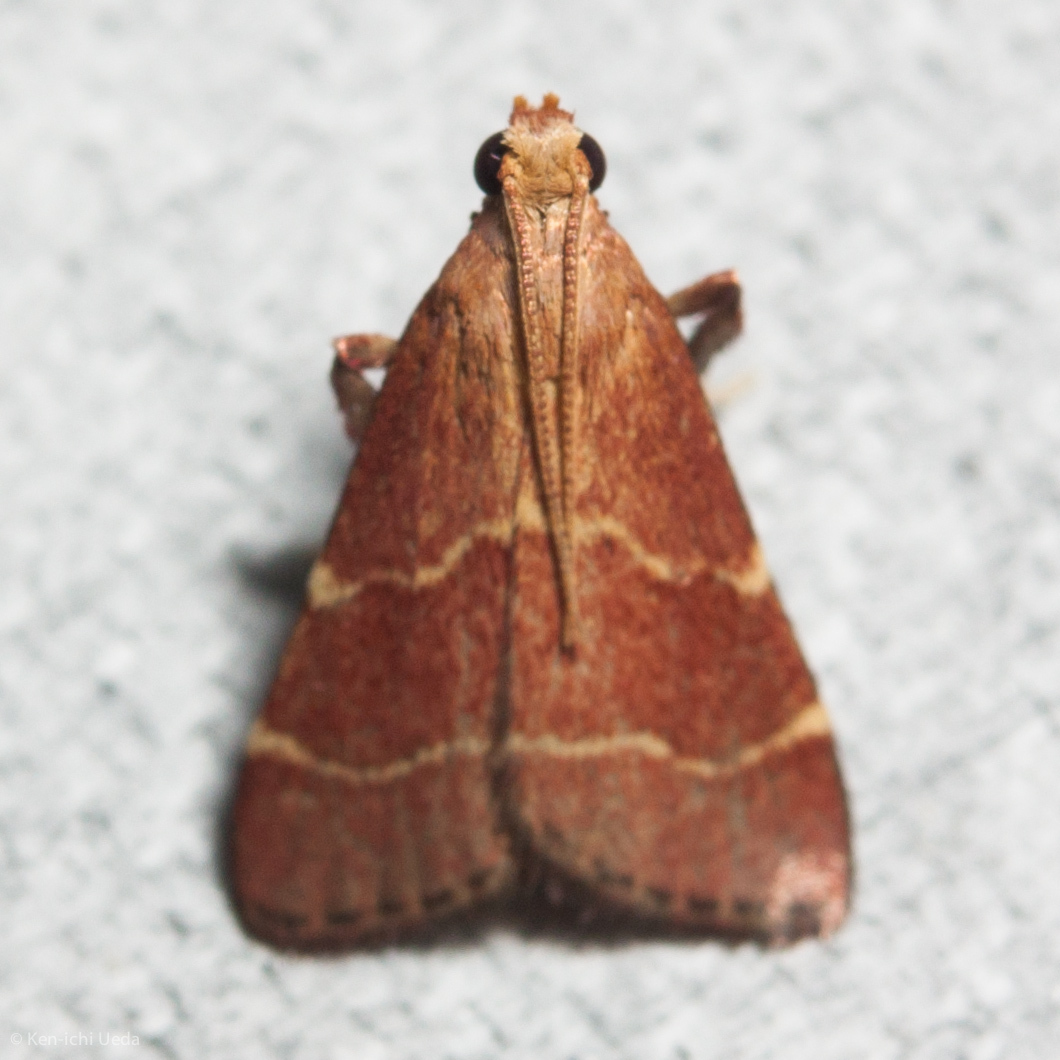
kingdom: Animalia
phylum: Arthropoda
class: Insecta
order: Lepidoptera
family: Pyralidae
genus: Arta
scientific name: Arta statalis
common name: Posturing arta moth
